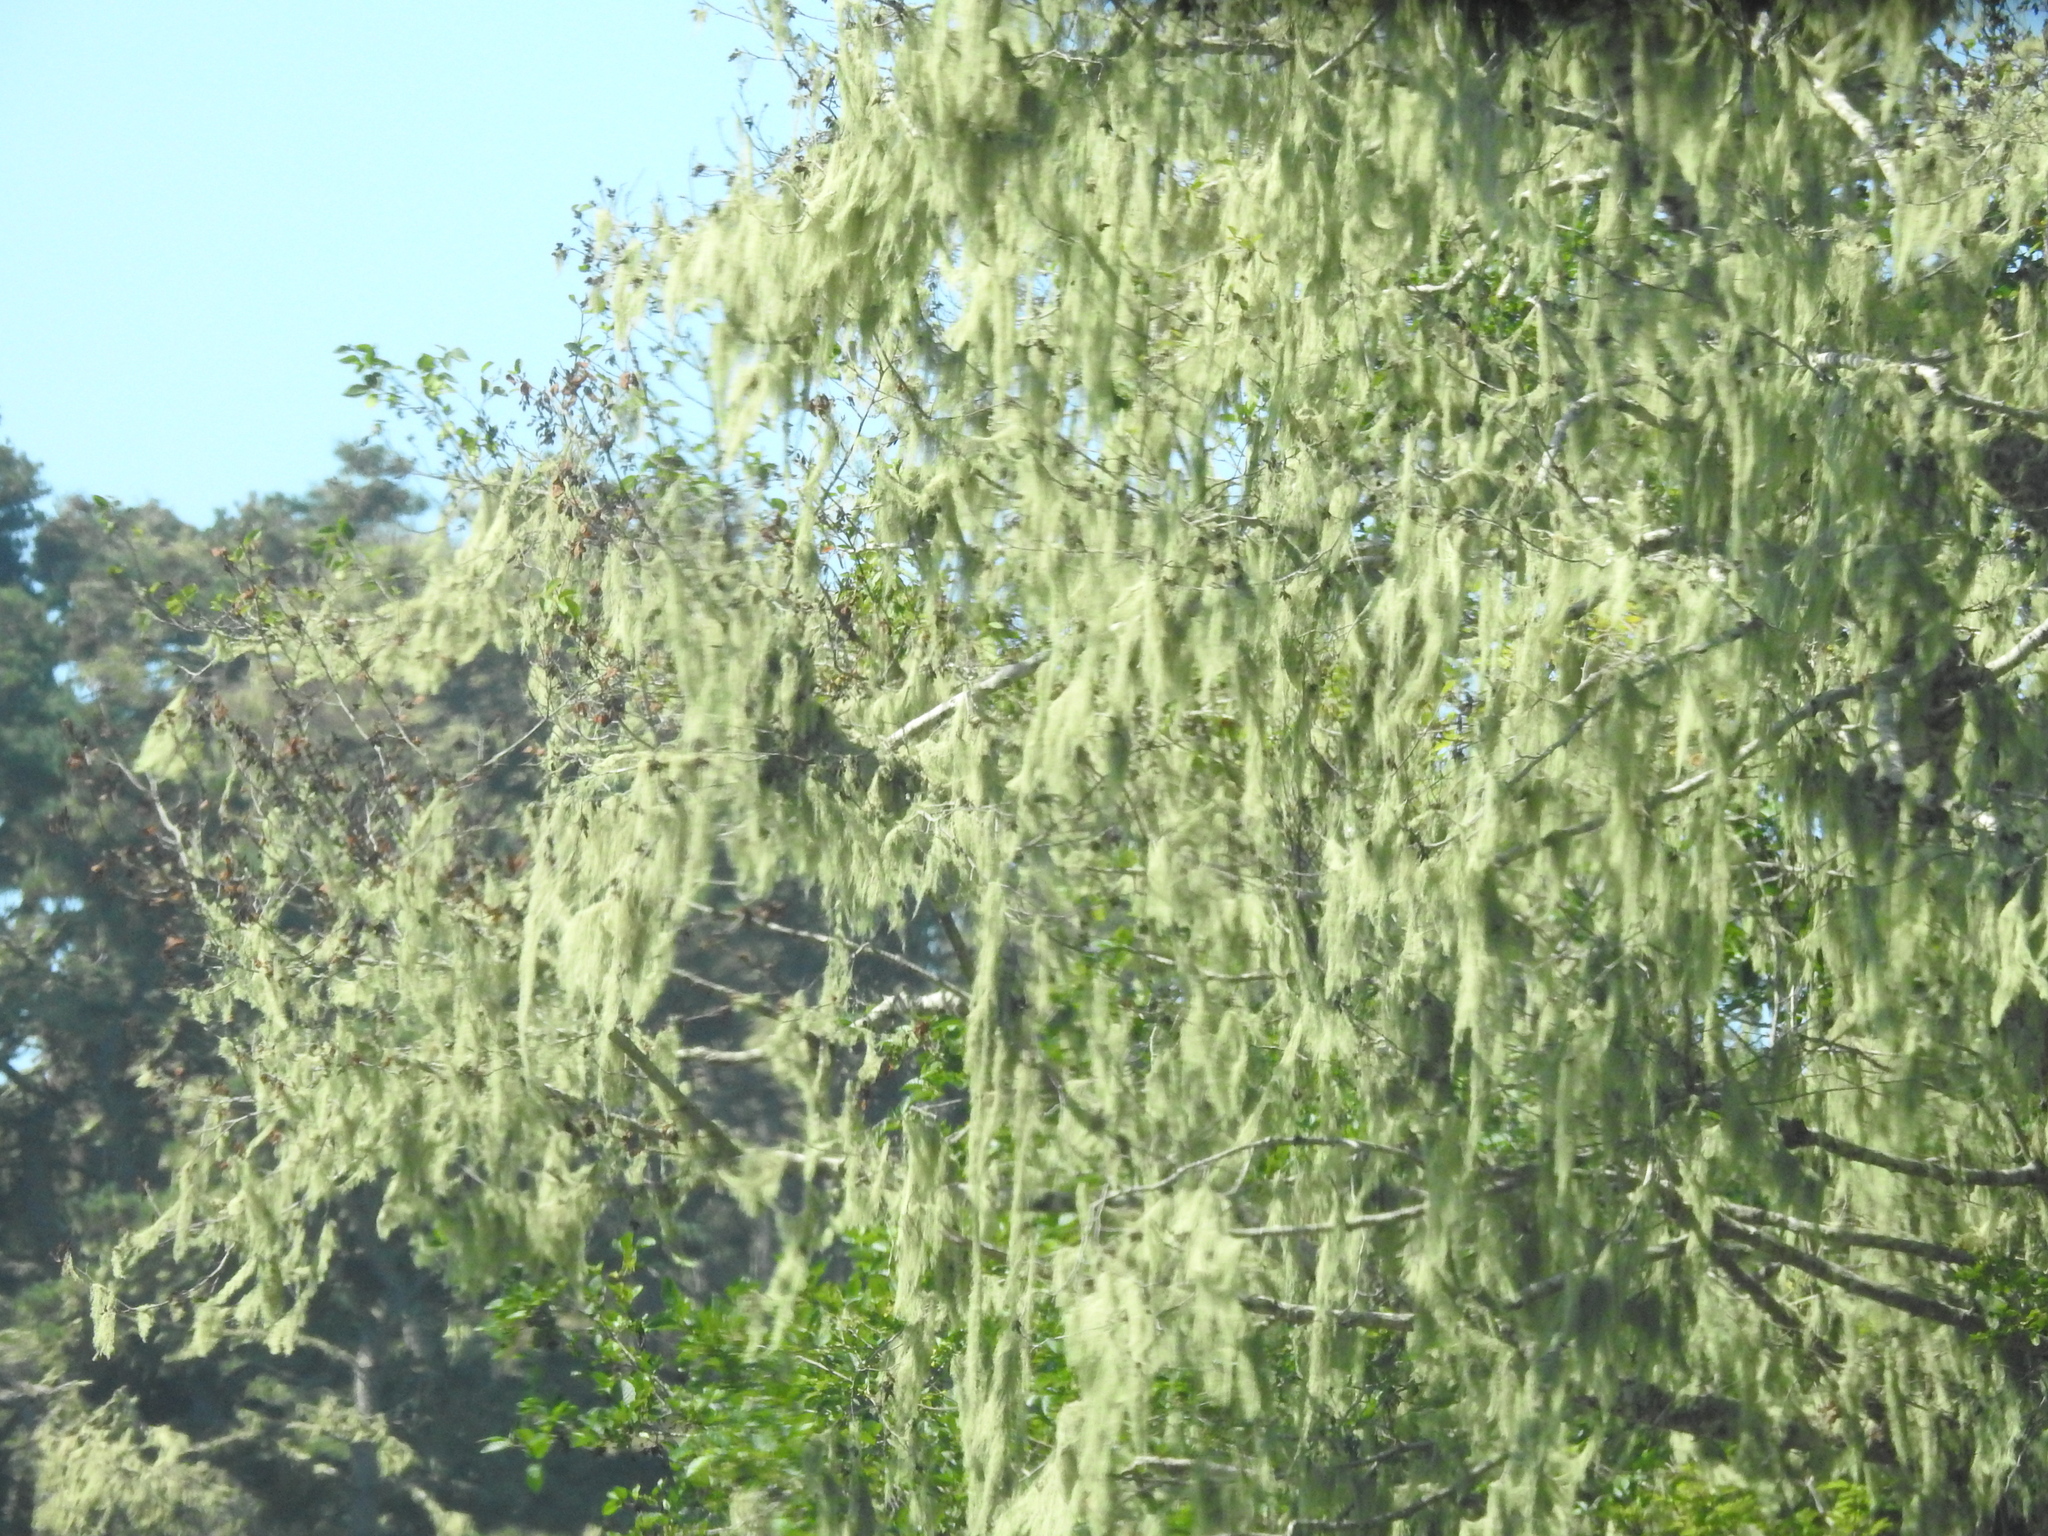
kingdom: Fungi
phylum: Ascomycota
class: Lecanoromycetes
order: Lecanorales
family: Ramalinaceae
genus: Ramalina
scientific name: Ramalina menziesii
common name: Lace lichen
